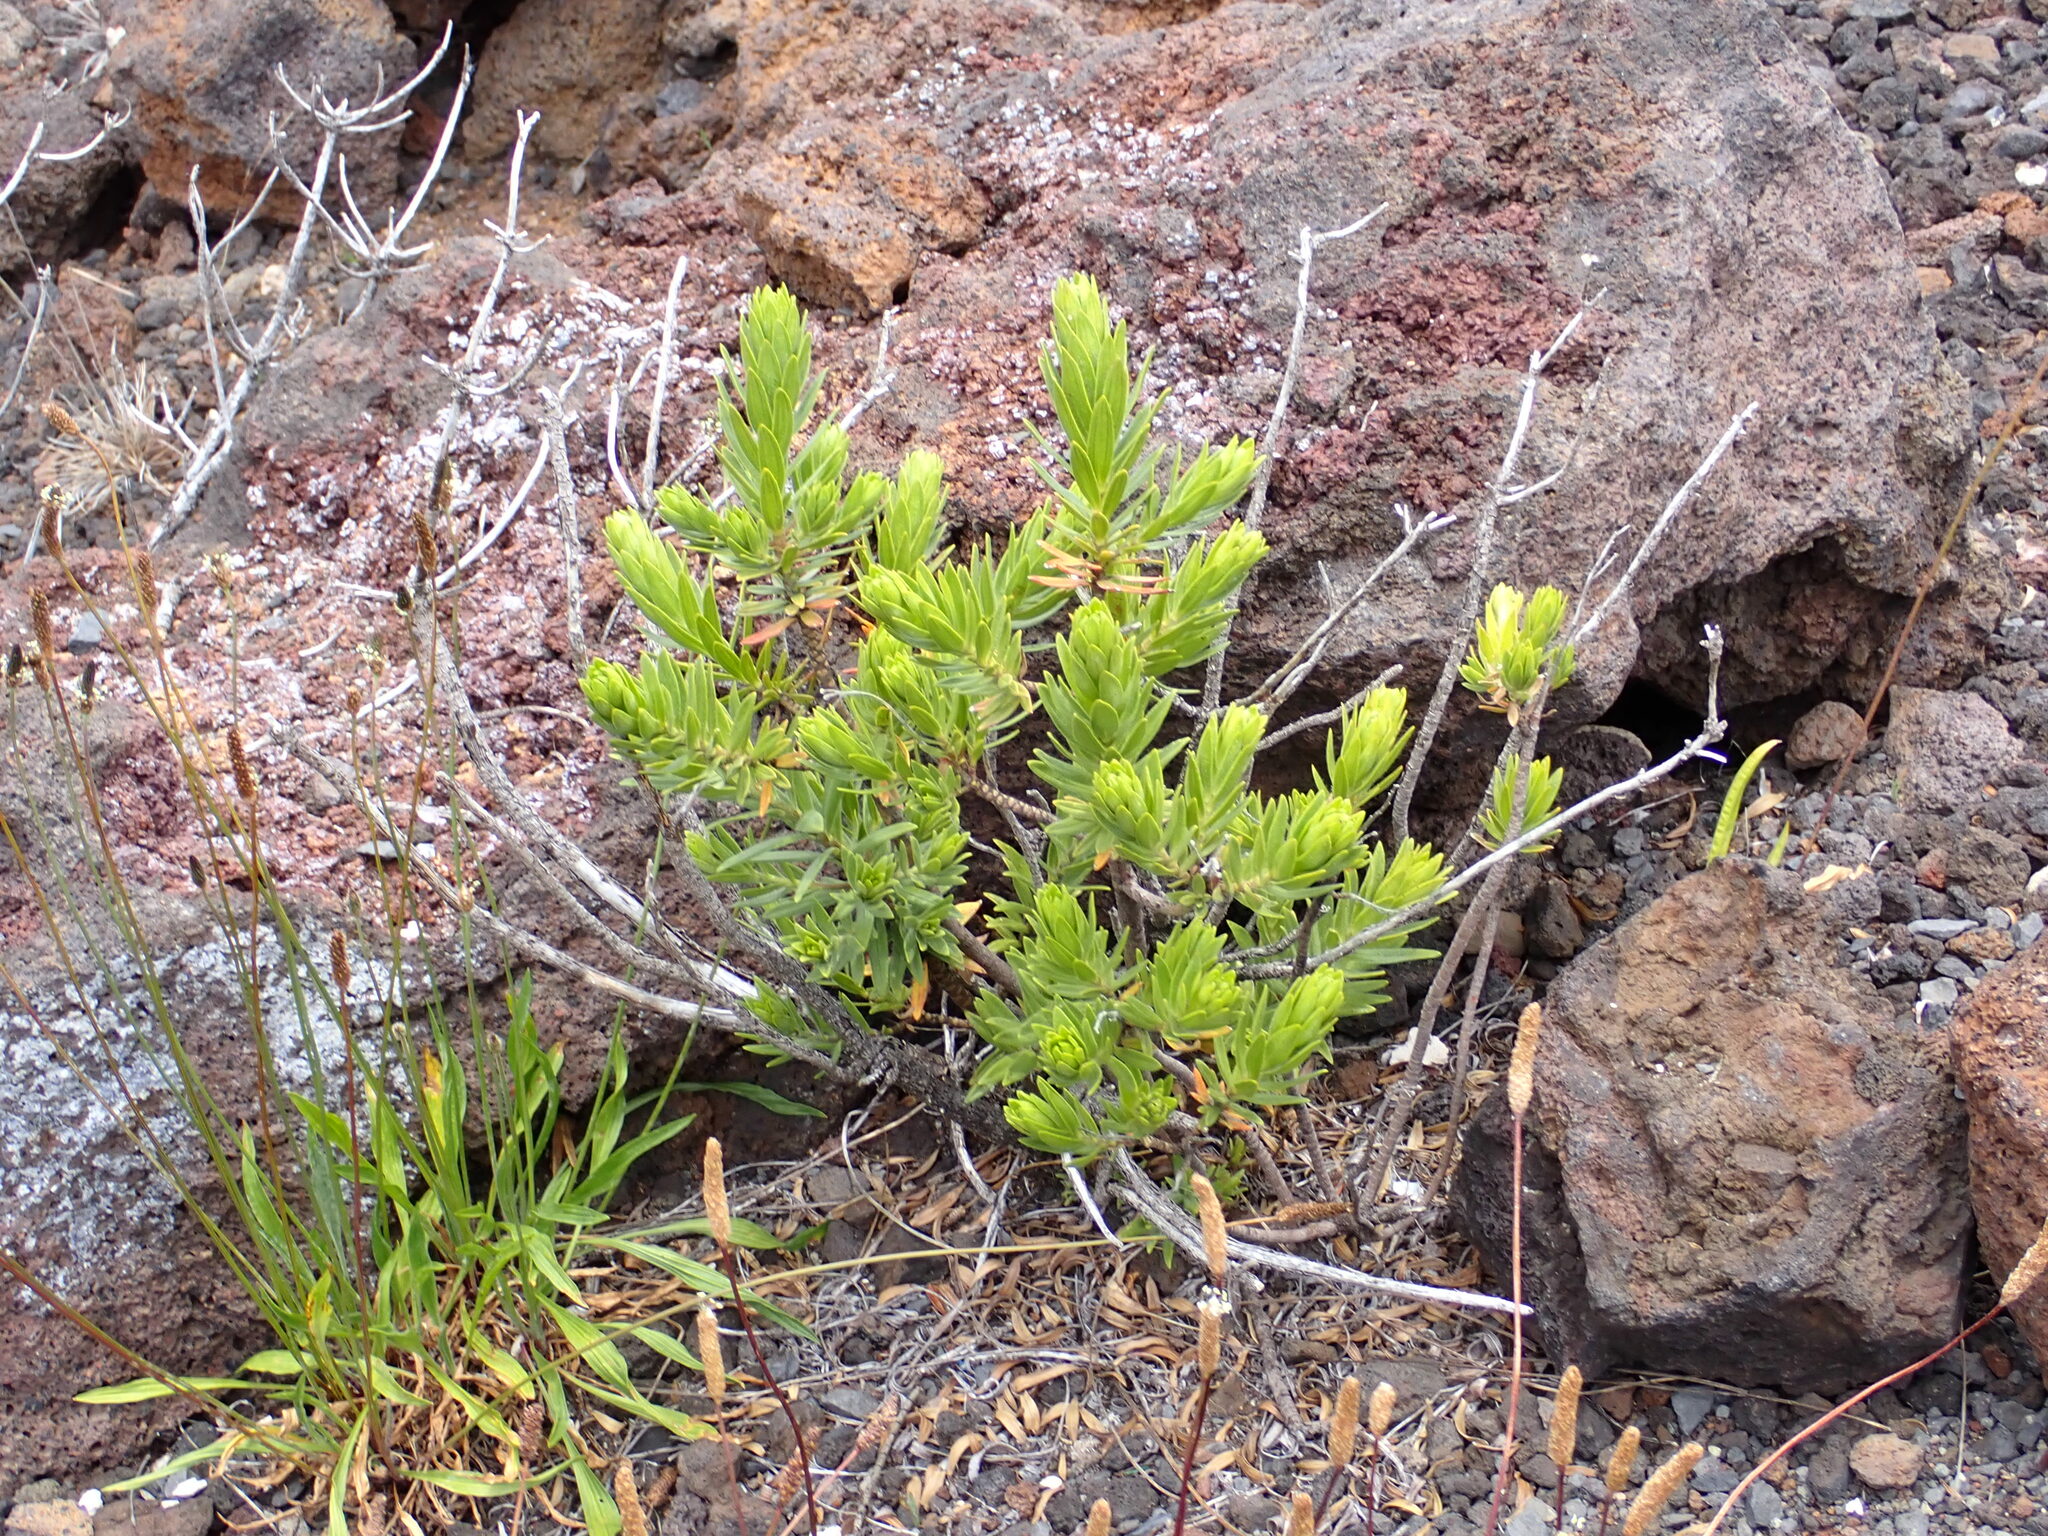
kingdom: Plantae
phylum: Tracheophyta
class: Magnoliopsida
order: Asterales
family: Asteraceae
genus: Dubautia
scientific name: Dubautia menziesii
